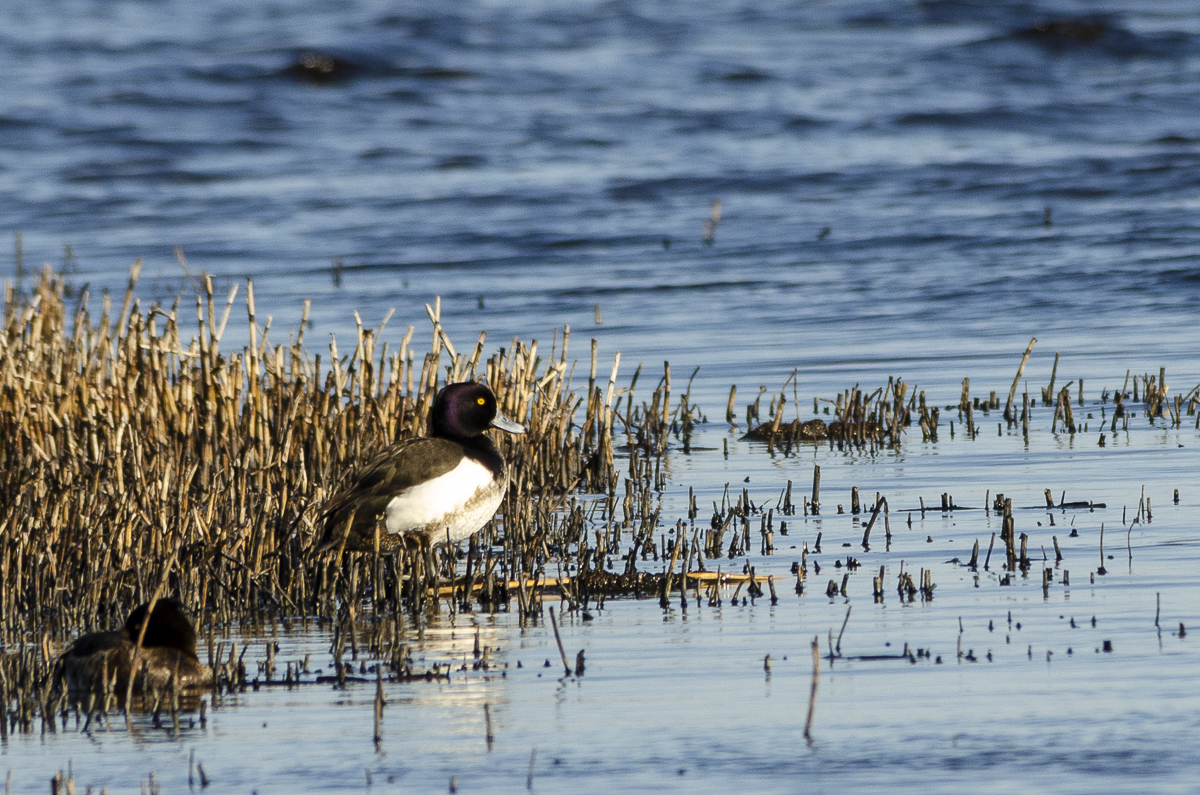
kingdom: Animalia
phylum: Chordata
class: Aves
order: Anseriformes
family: Anatidae
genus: Aythya
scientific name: Aythya fuligula
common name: Tufted duck
